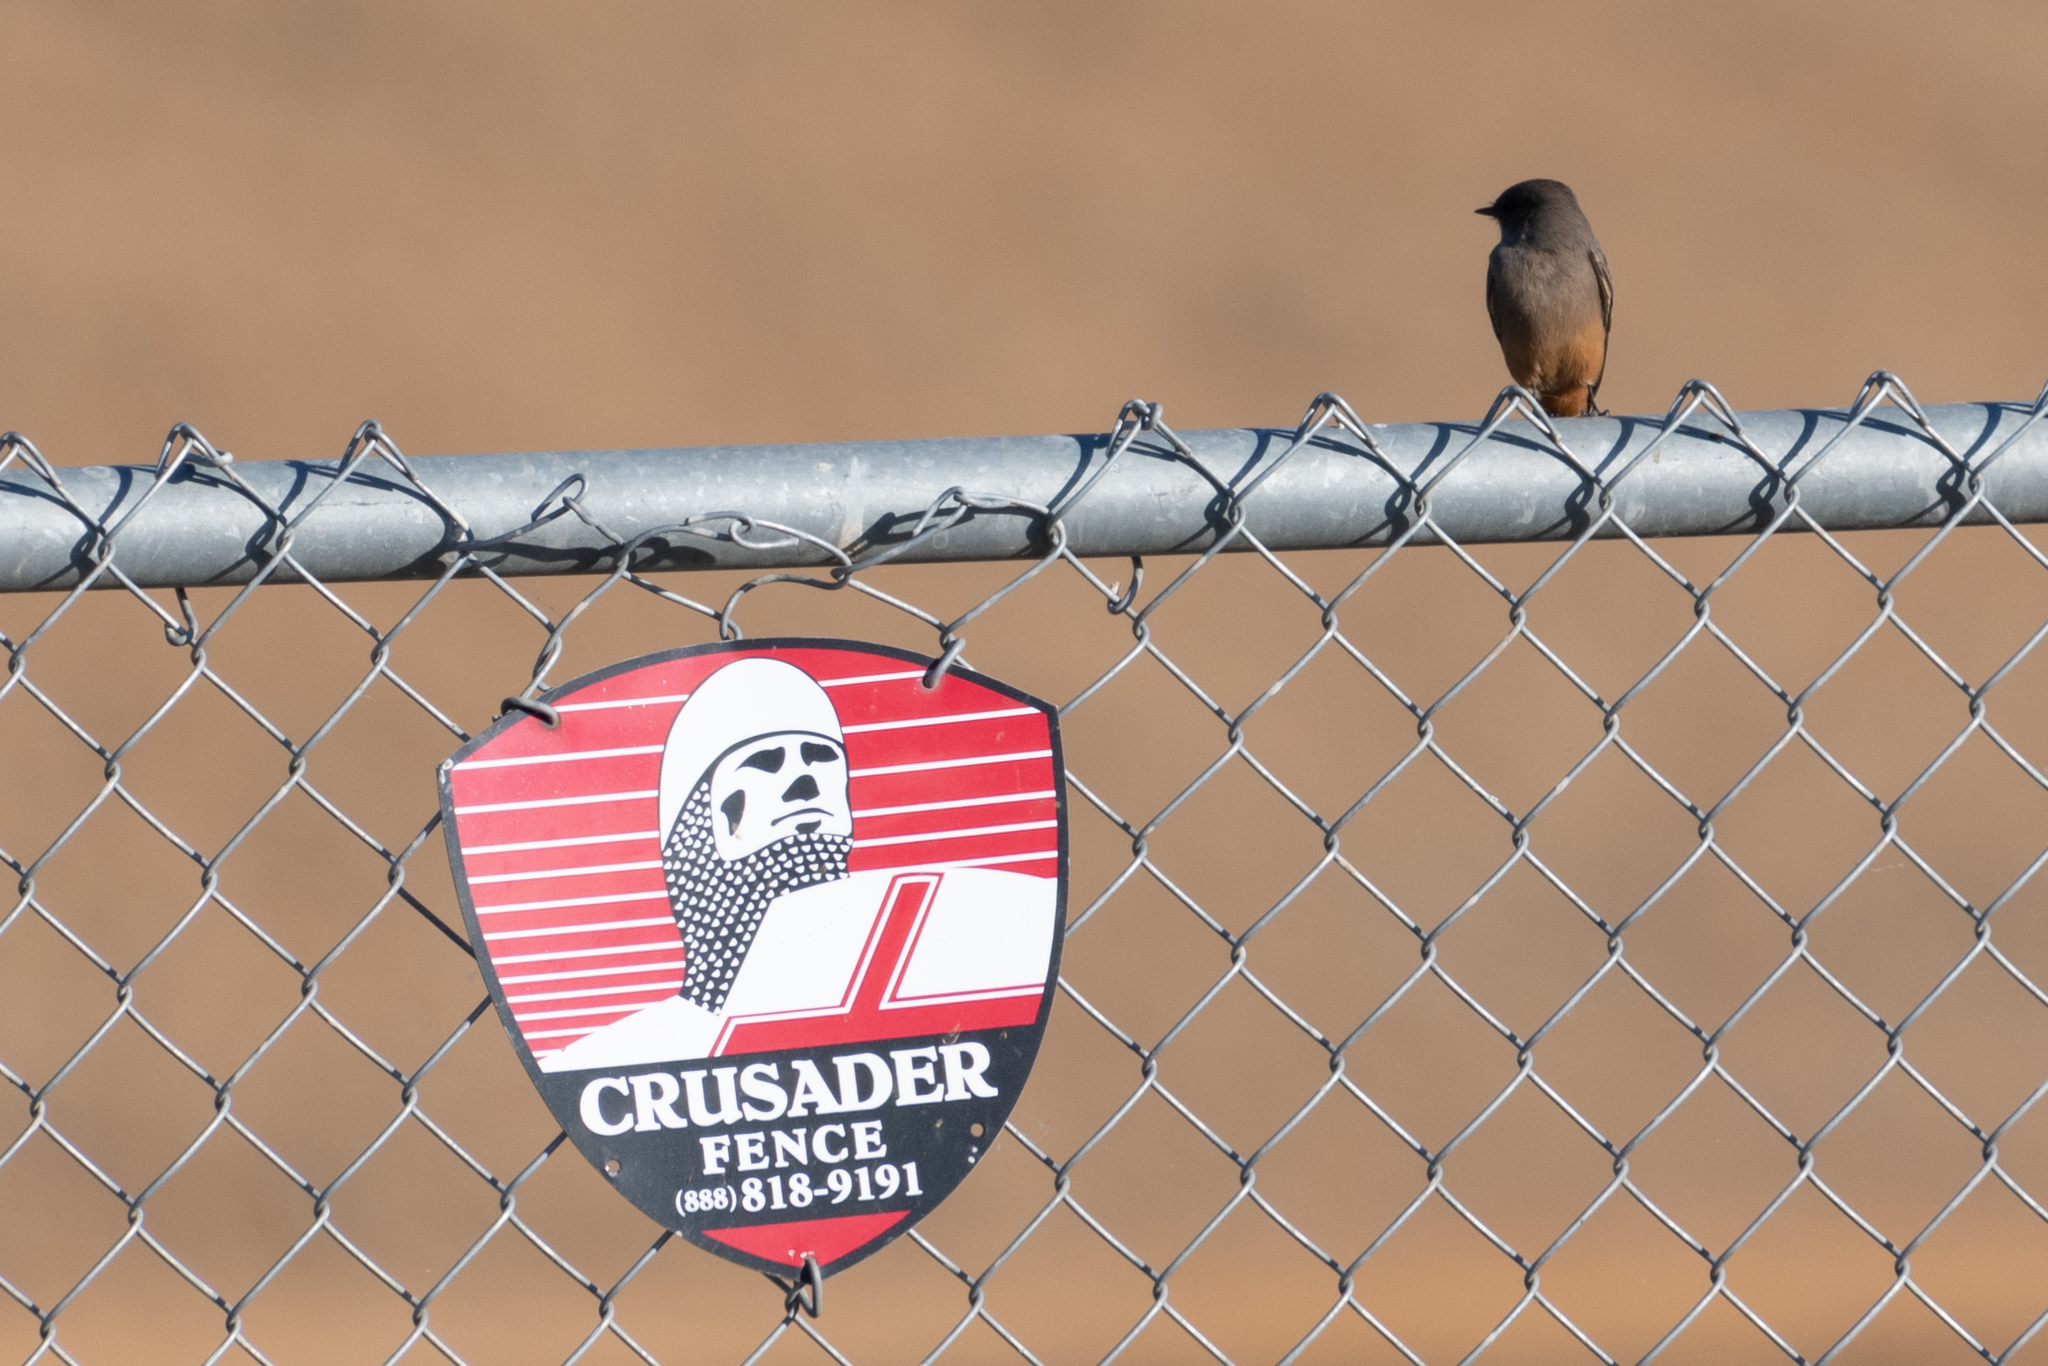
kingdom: Animalia
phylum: Chordata
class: Aves
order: Passeriformes
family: Tyrannidae
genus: Sayornis
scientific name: Sayornis saya
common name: Say's phoebe
